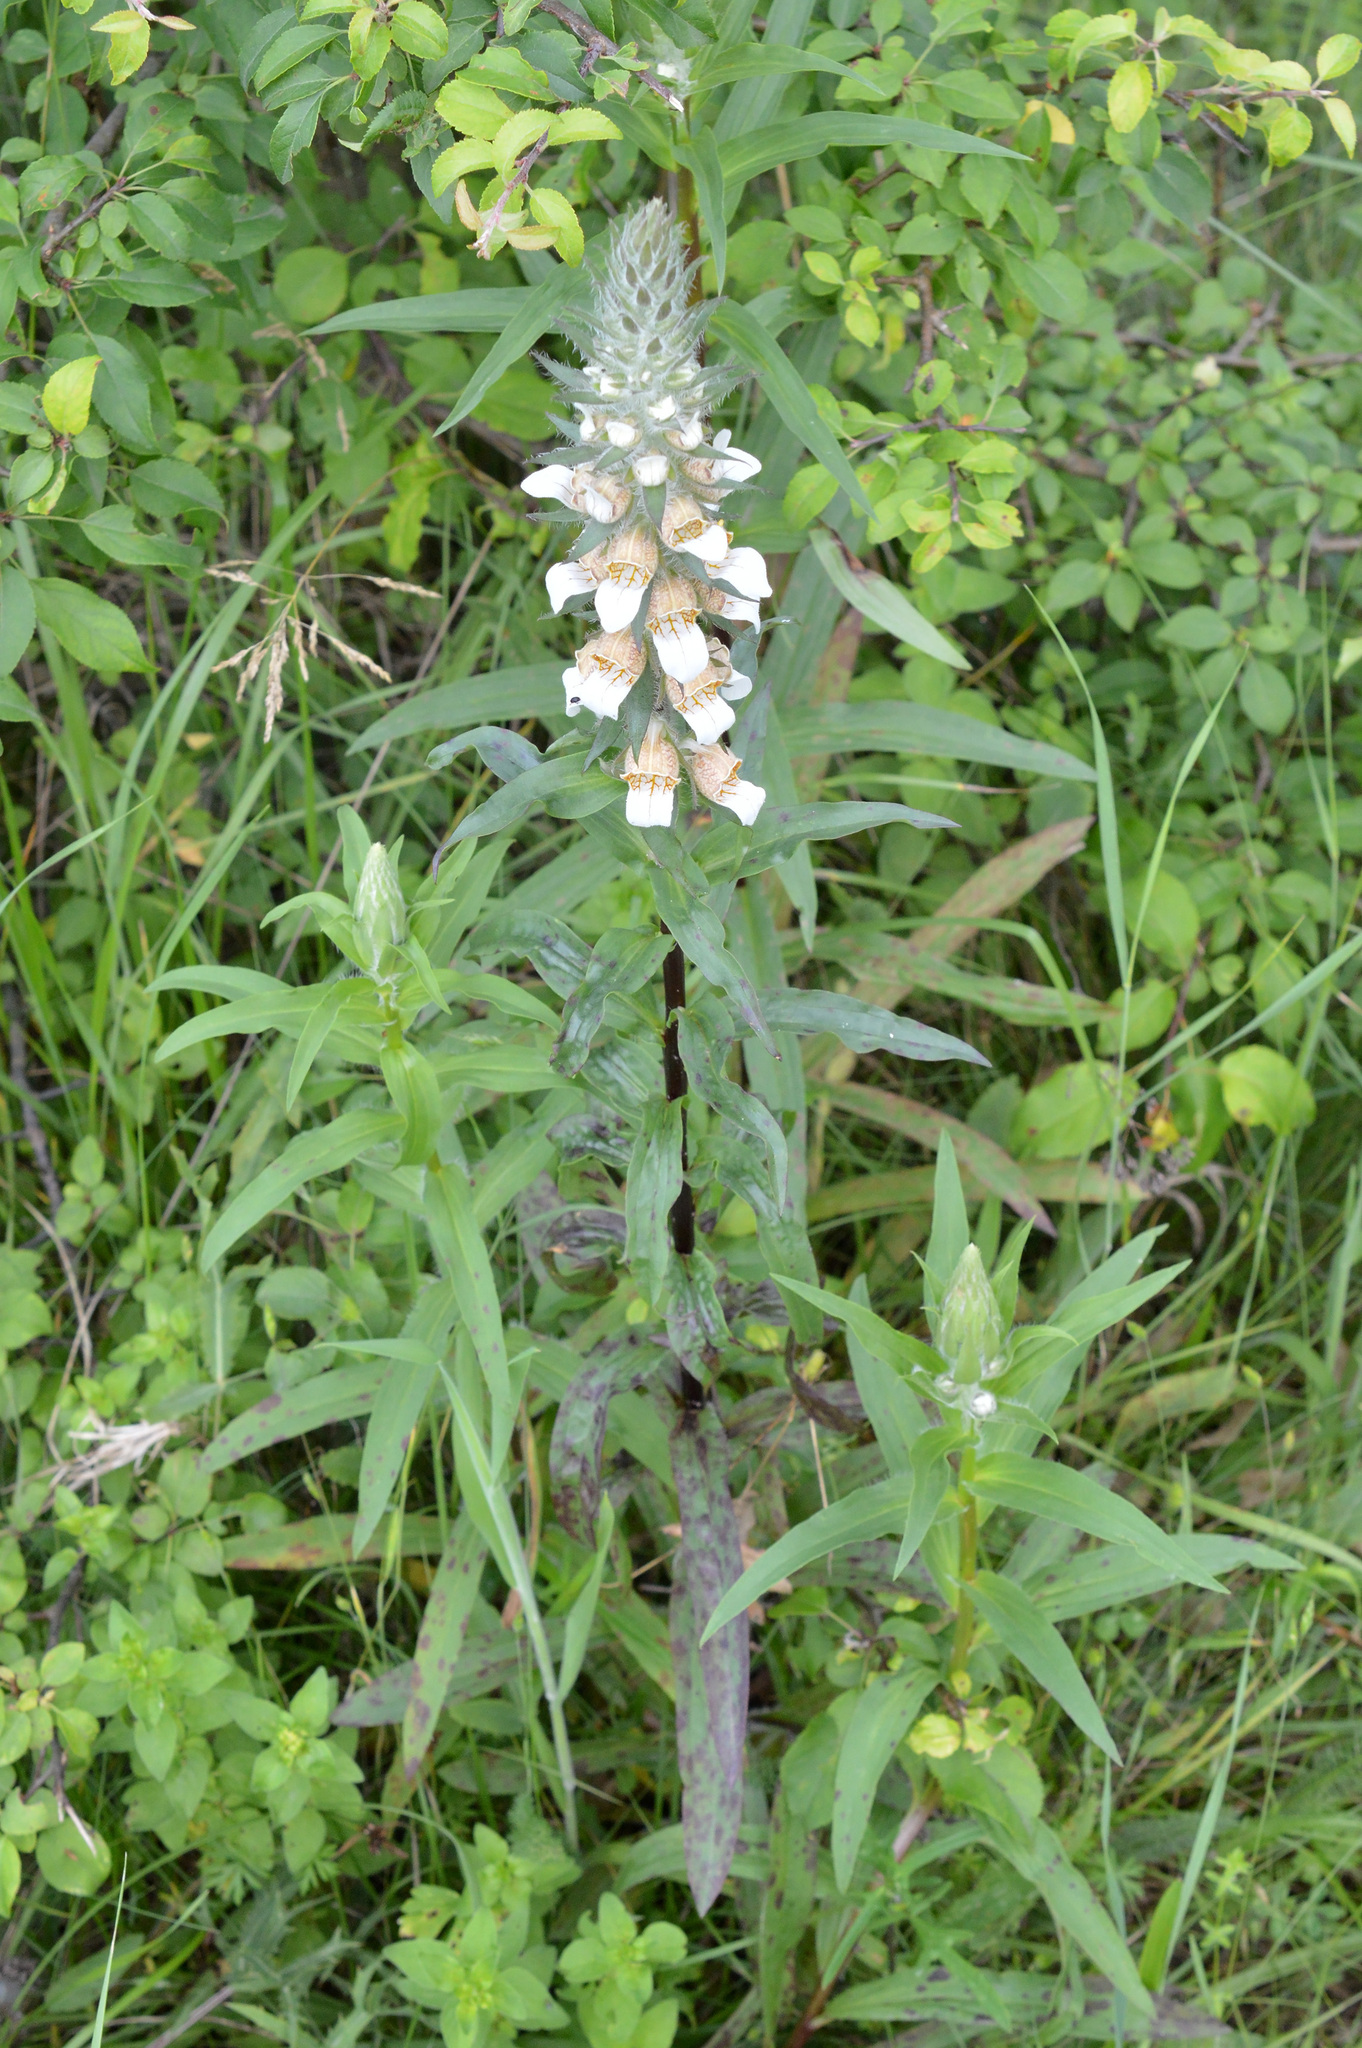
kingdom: Plantae
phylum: Tracheophyta
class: Magnoliopsida
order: Lamiales
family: Plantaginaceae
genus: Digitalis
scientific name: Digitalis lanata
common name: Grecian foxglove
